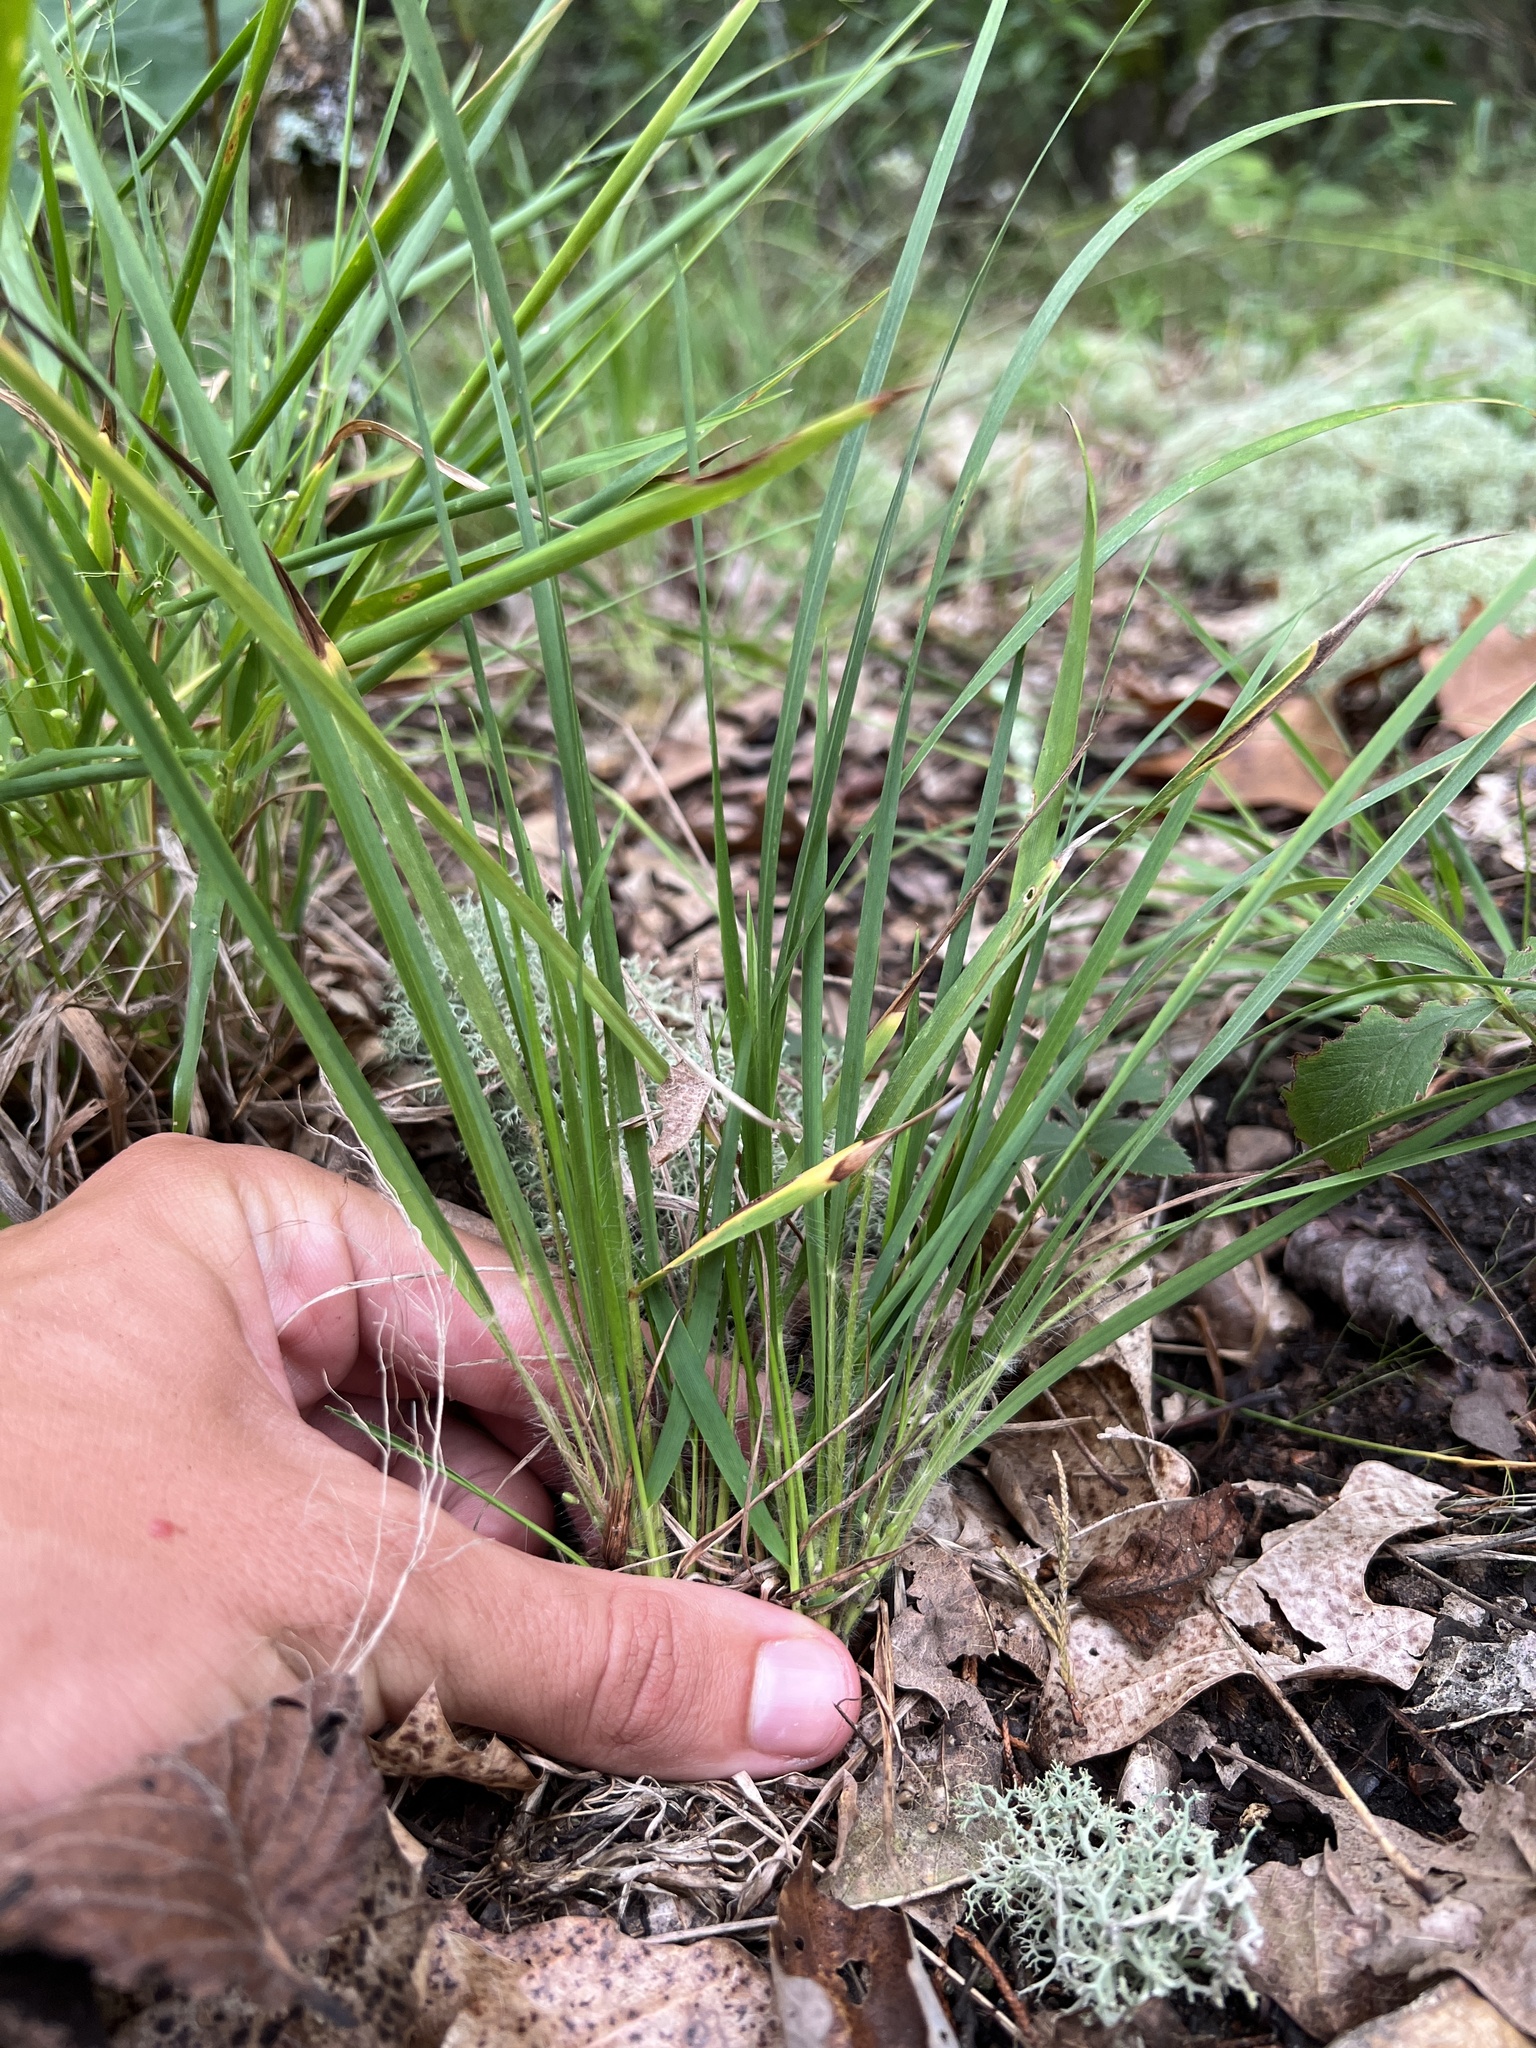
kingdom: Plantae
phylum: Tracheophyta
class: Liliopsida
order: Poales
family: Poaceae
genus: Dichanthelium
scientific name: Dichanthelium linearifolium
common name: Linear-leaved panicgrass
